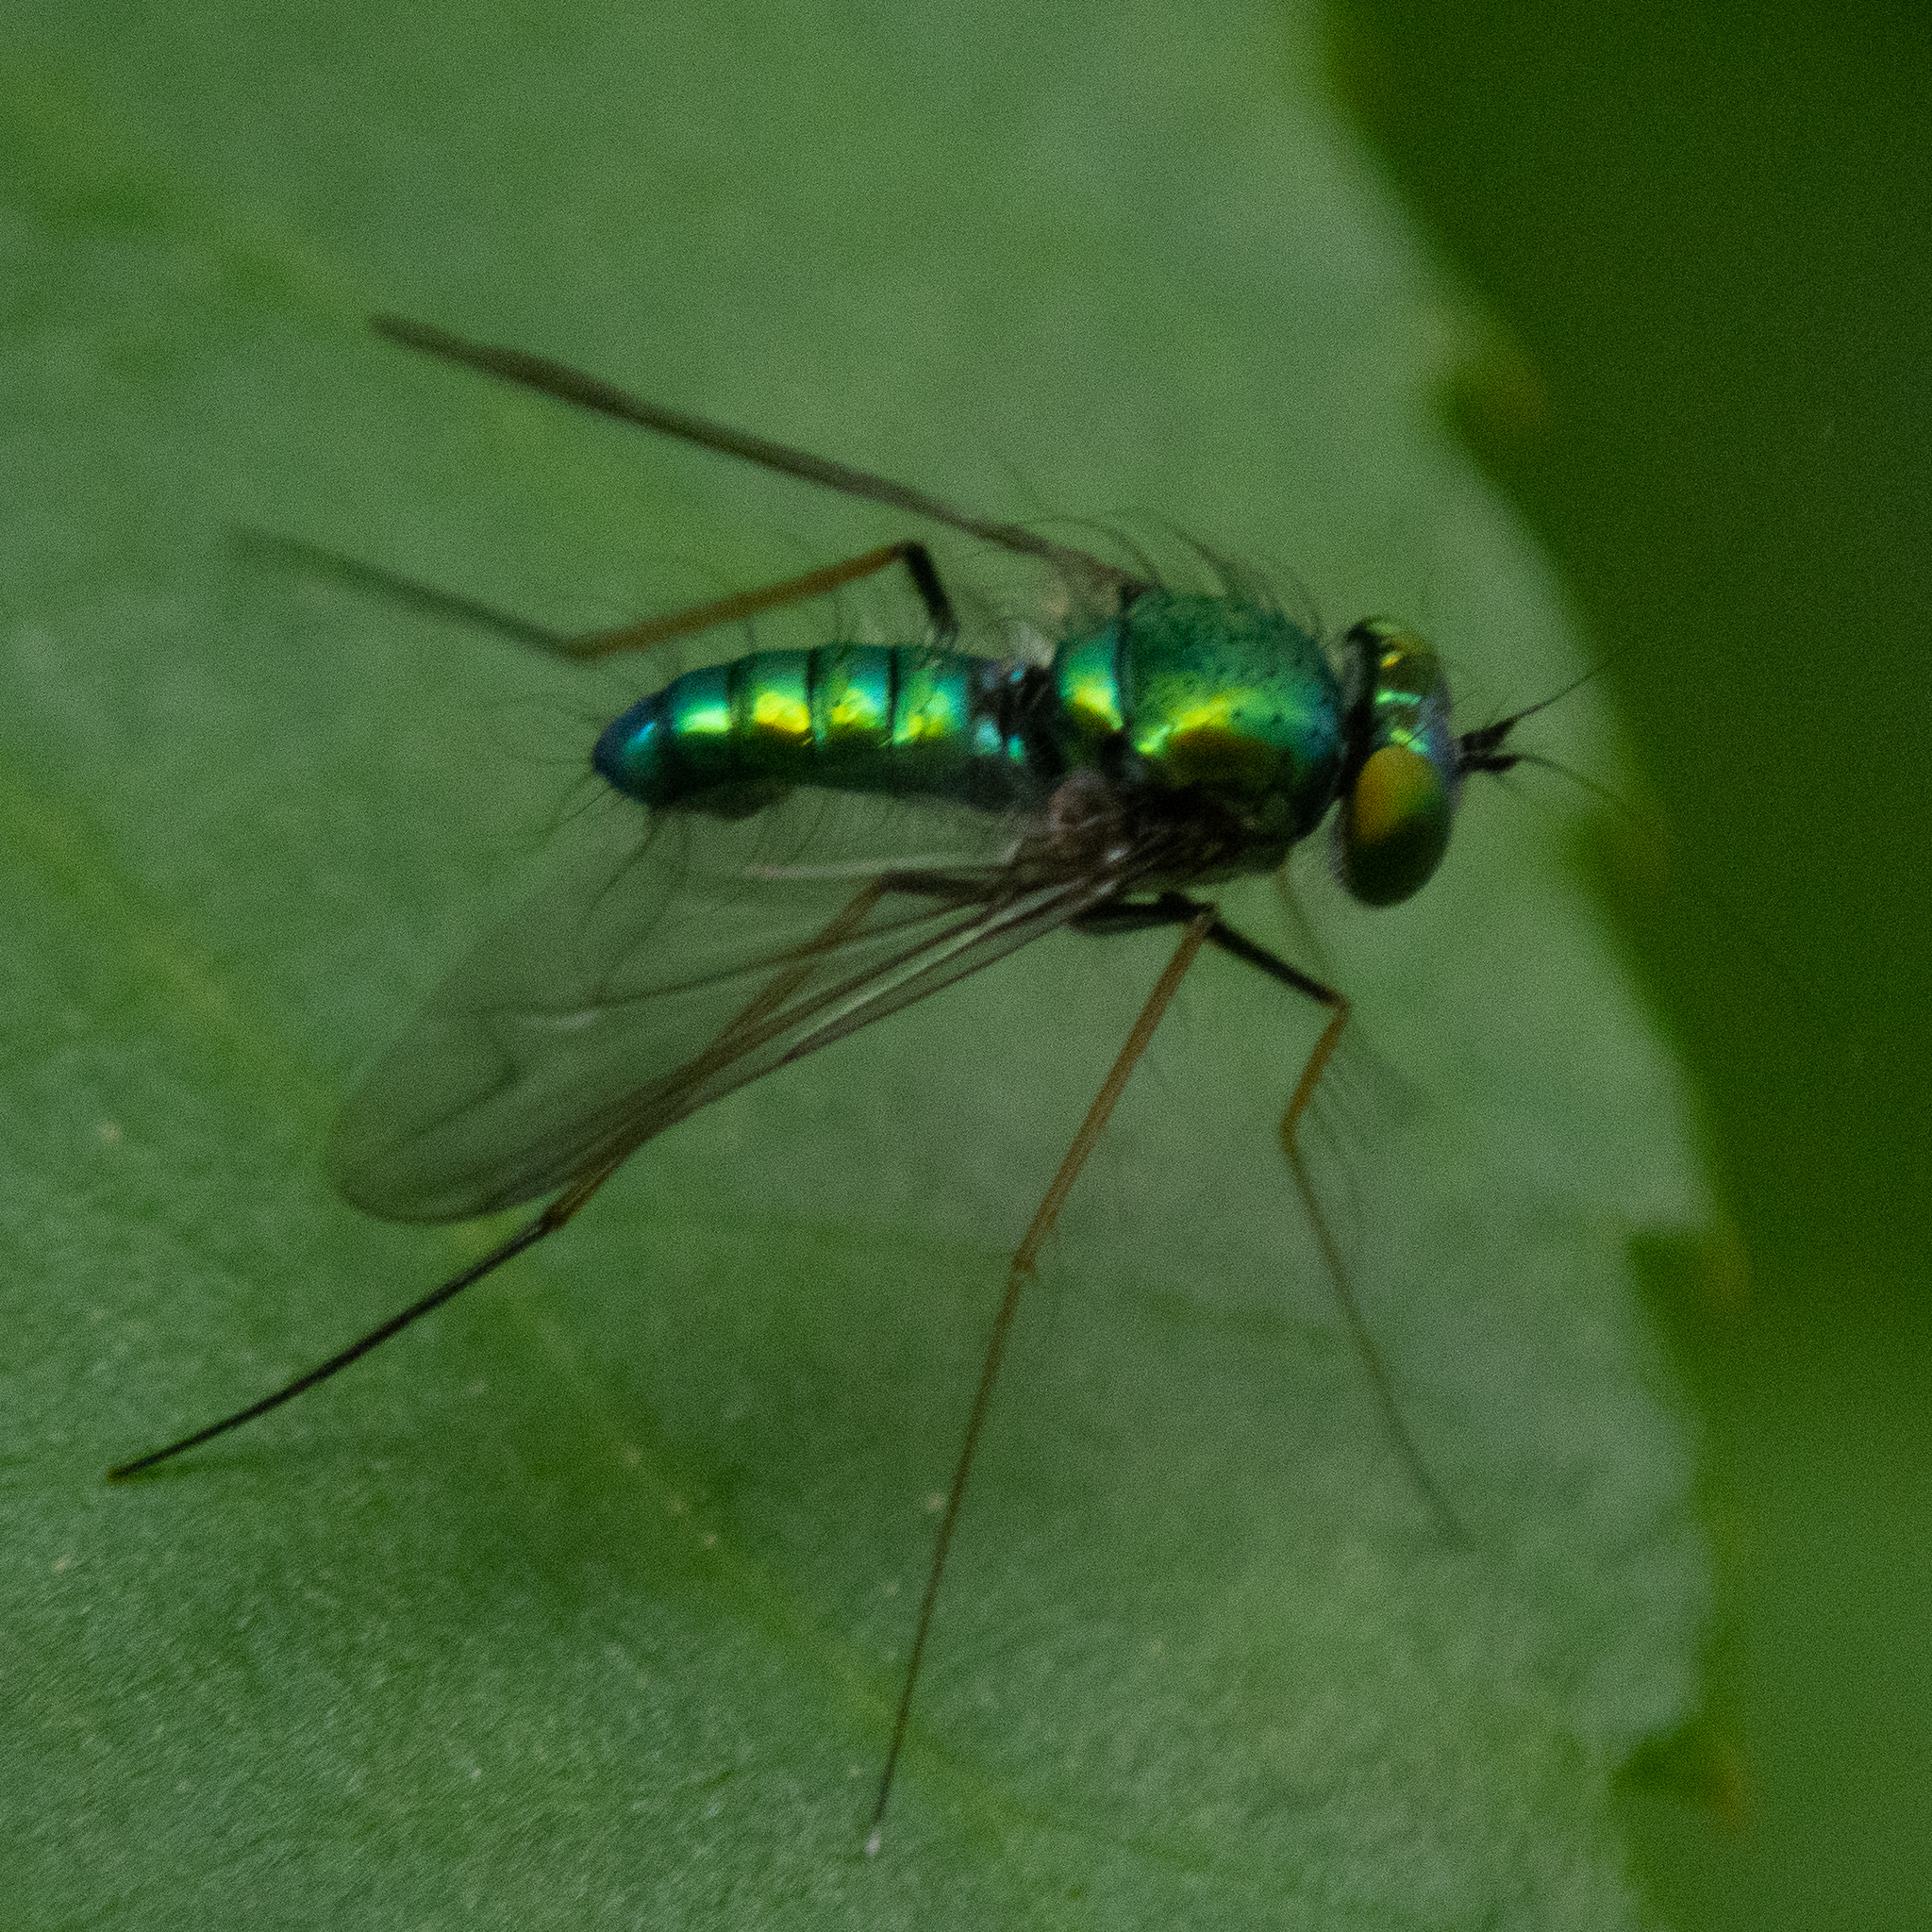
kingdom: Animalia
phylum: Arthropoda
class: Insecta
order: Diptera
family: Dolichopodidae
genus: Condylostylus
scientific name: Condylostylus comatus
